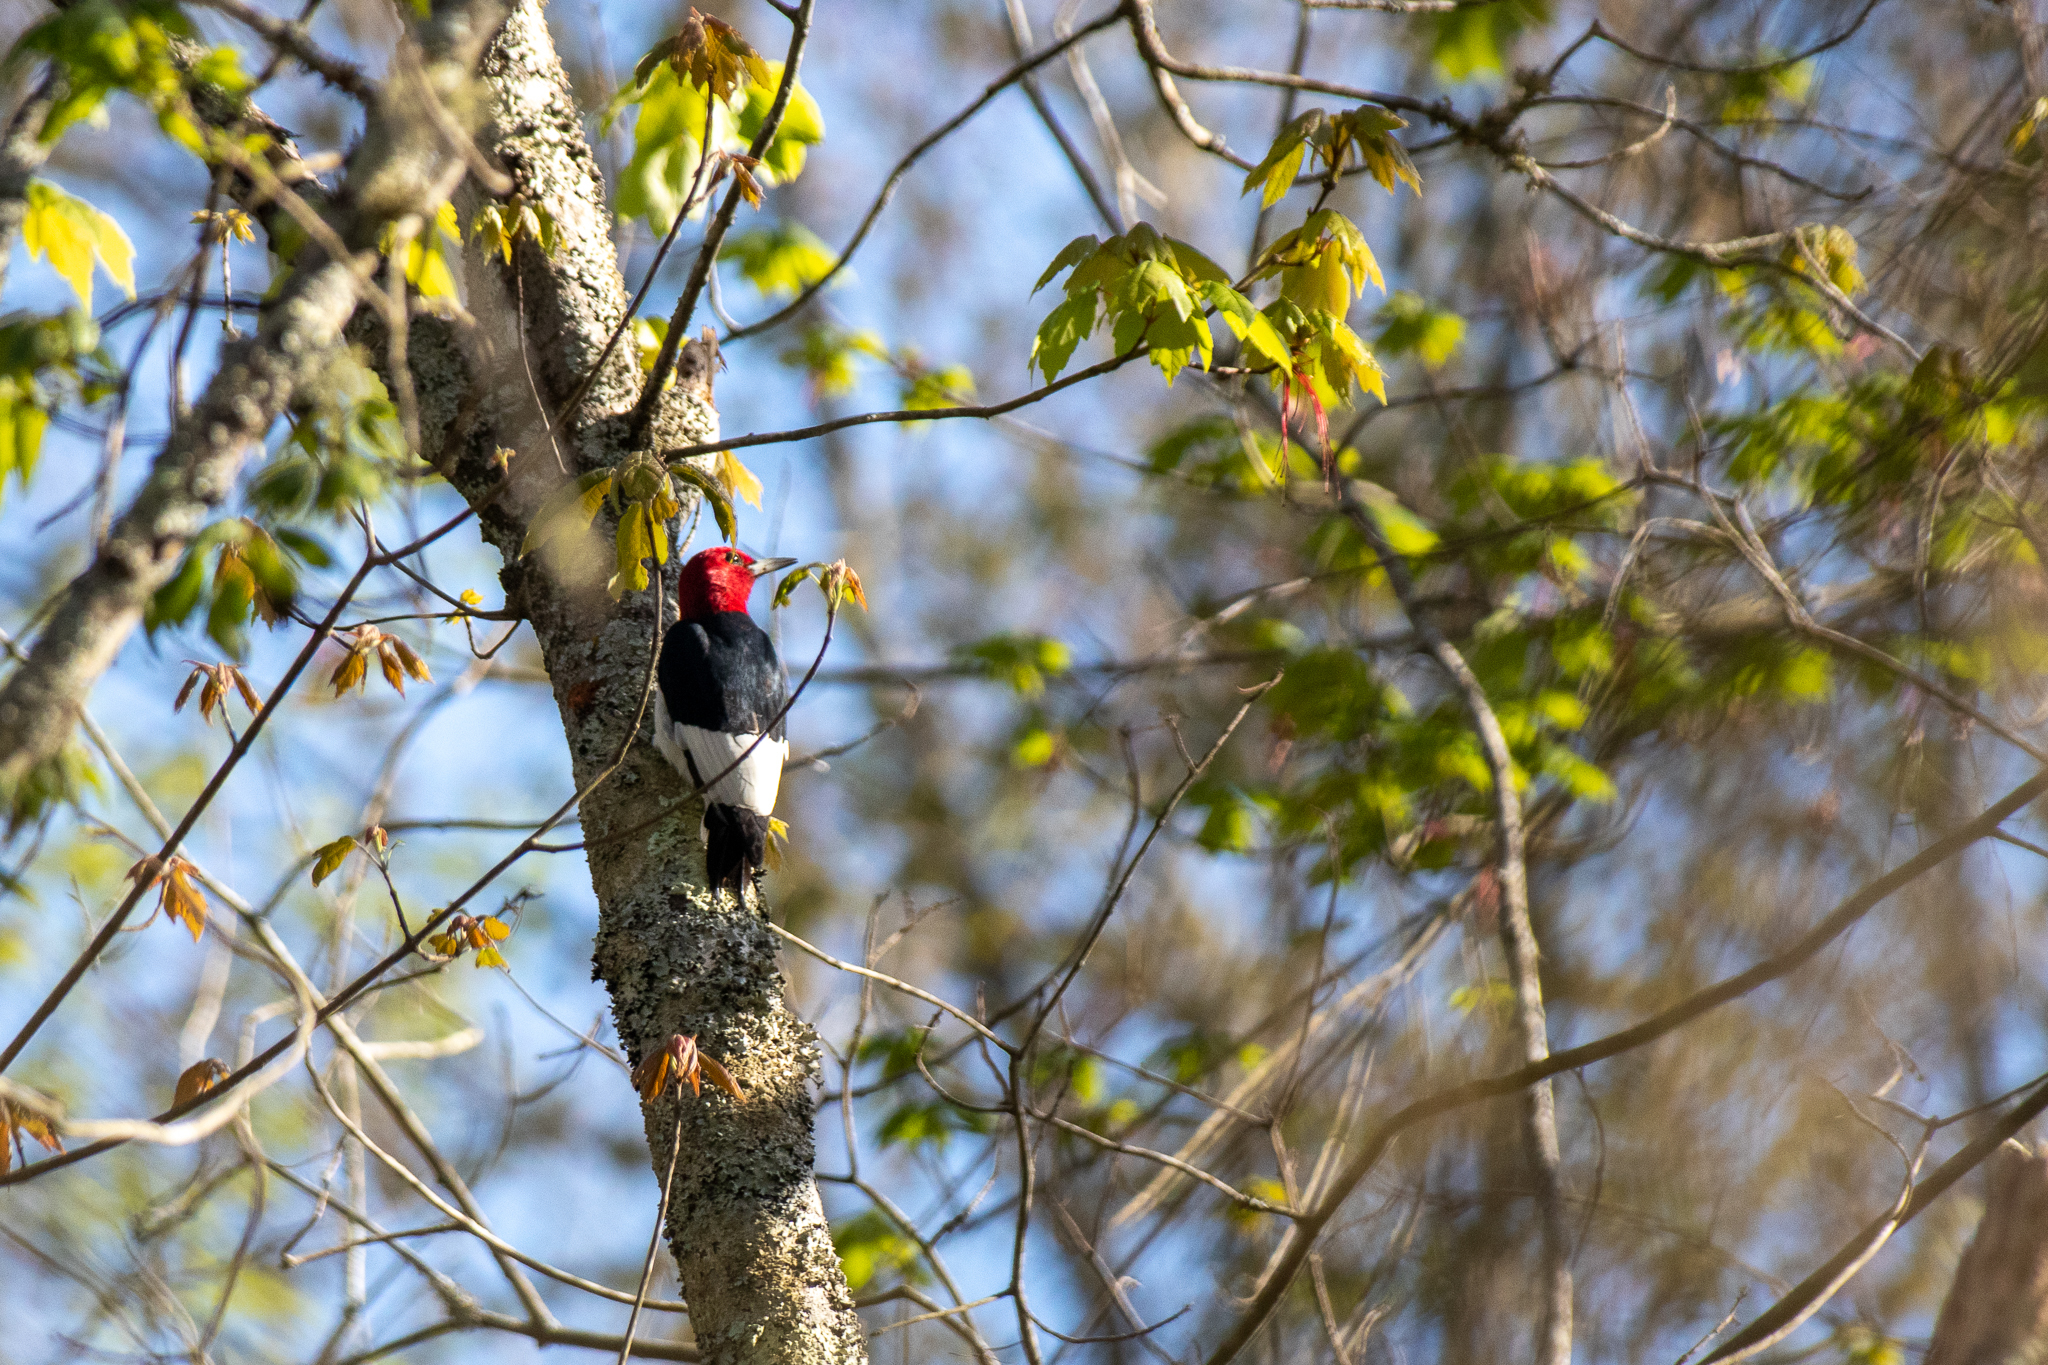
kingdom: Animalia
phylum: Chordata
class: Aves
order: Piciformes
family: Picidae
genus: Melanerpes
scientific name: Melanerpes erythrocephalus
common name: Red-headed woodpecker
